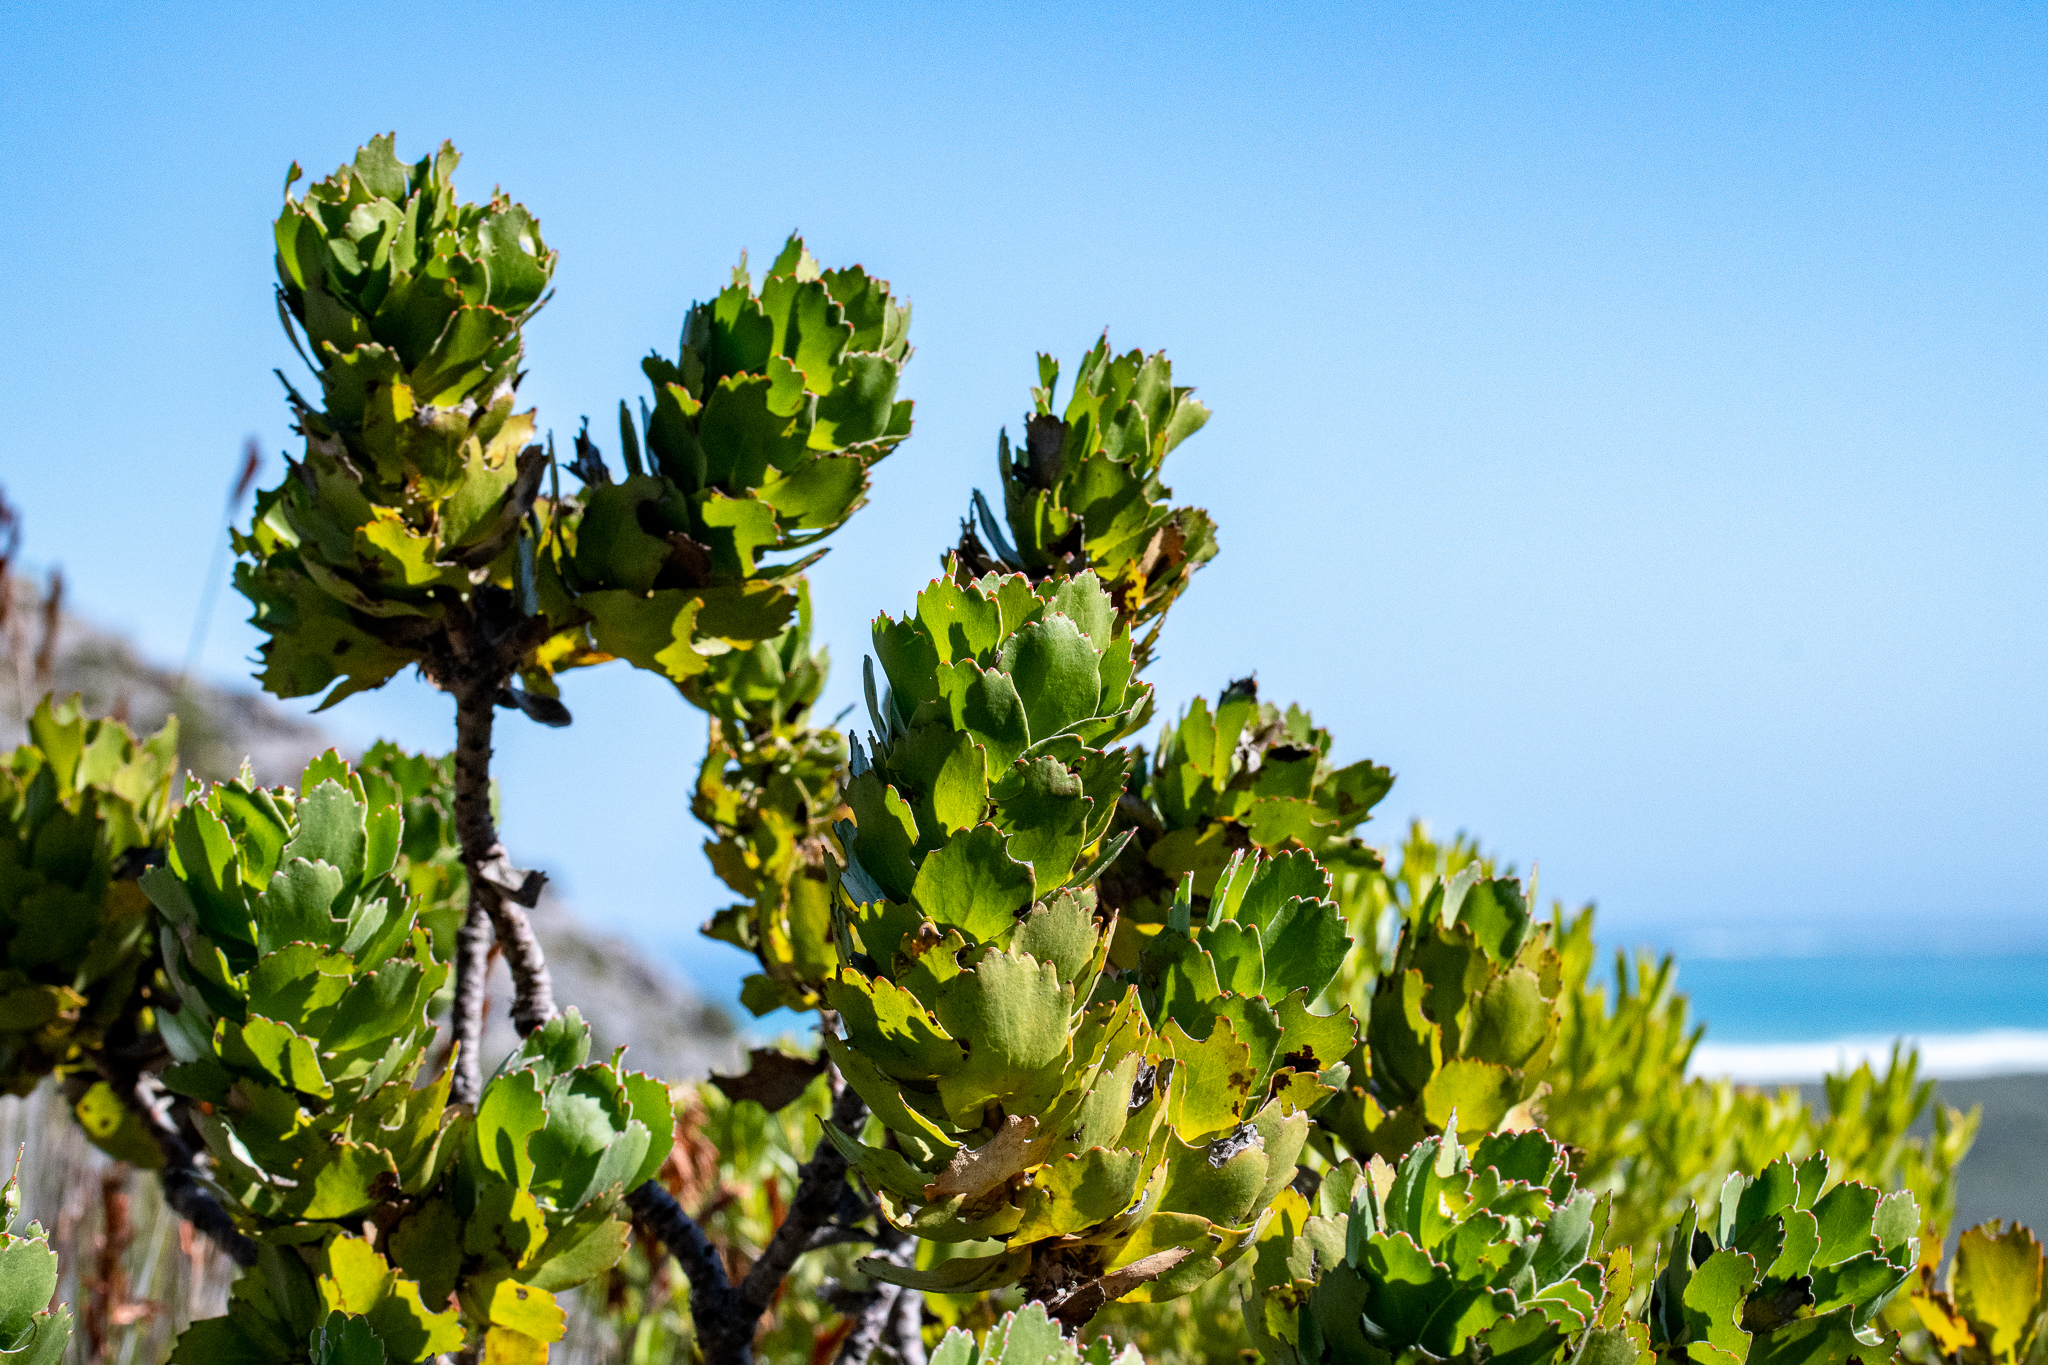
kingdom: Plantae
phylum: Tracheophyta
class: Magnoliopsida
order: Proteales
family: Proteaceae
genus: Leucospermum
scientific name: Leucospermum patersonii
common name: False tree pincushion
